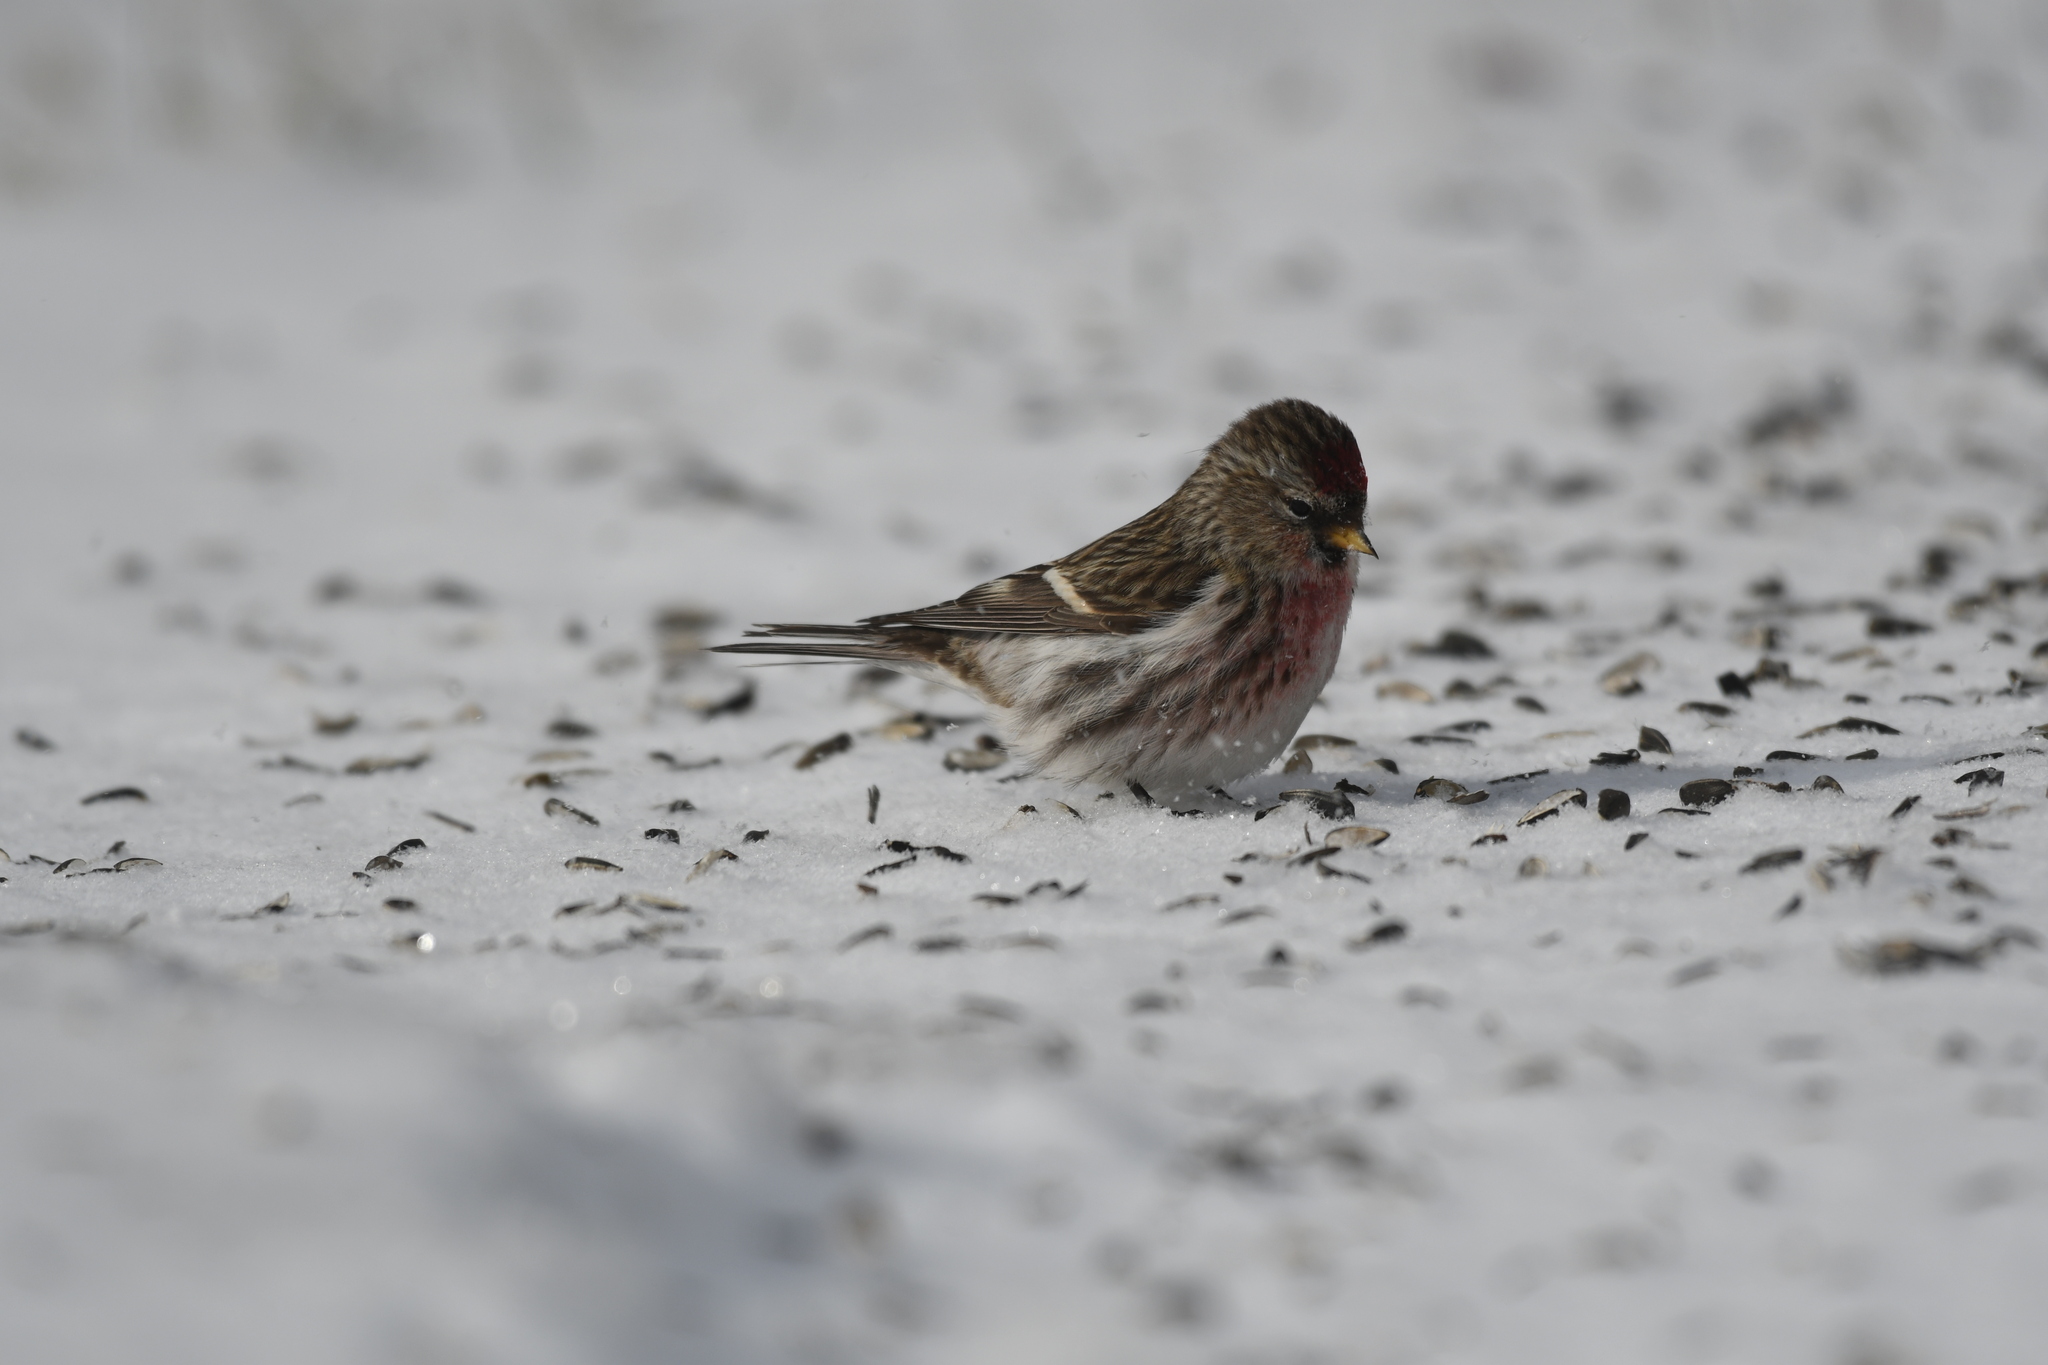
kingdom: Animalia
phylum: Chordata
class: Aves
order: Passeriformes
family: Fringillidae
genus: Acanthis
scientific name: Acanthis flammea
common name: Common redpoll
